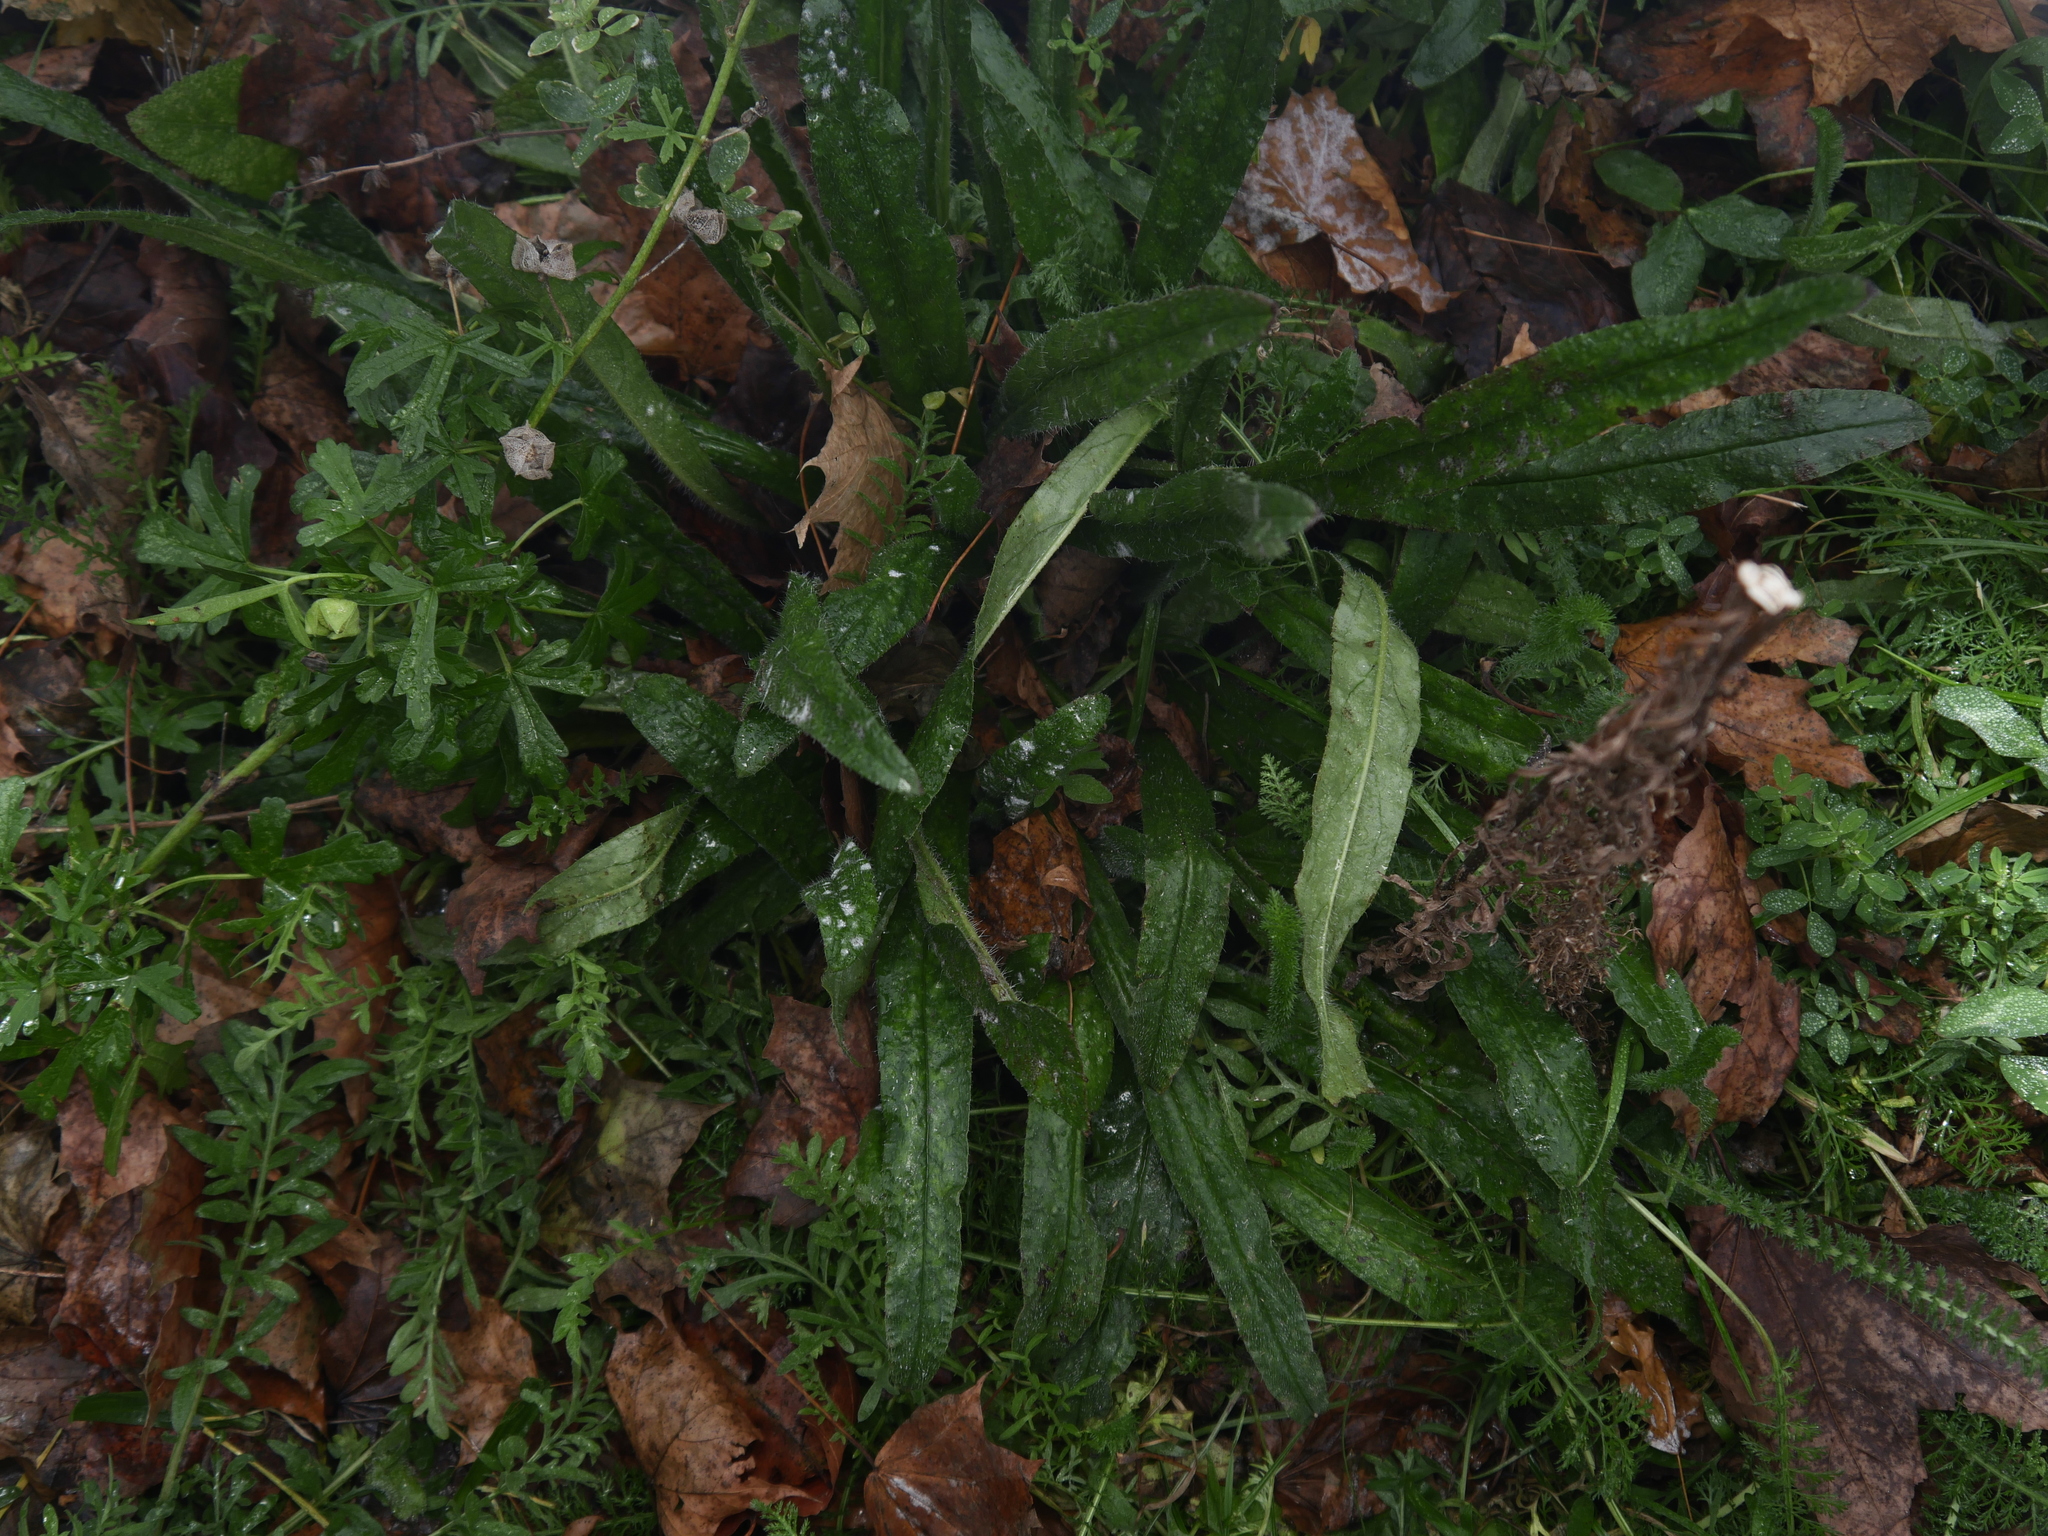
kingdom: Plantae
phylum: Tracheophyta
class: Magnoliopsida
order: Boraginales
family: Boraginaceae
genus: Echium
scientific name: Echium vulgare
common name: Common viper's bugloss
